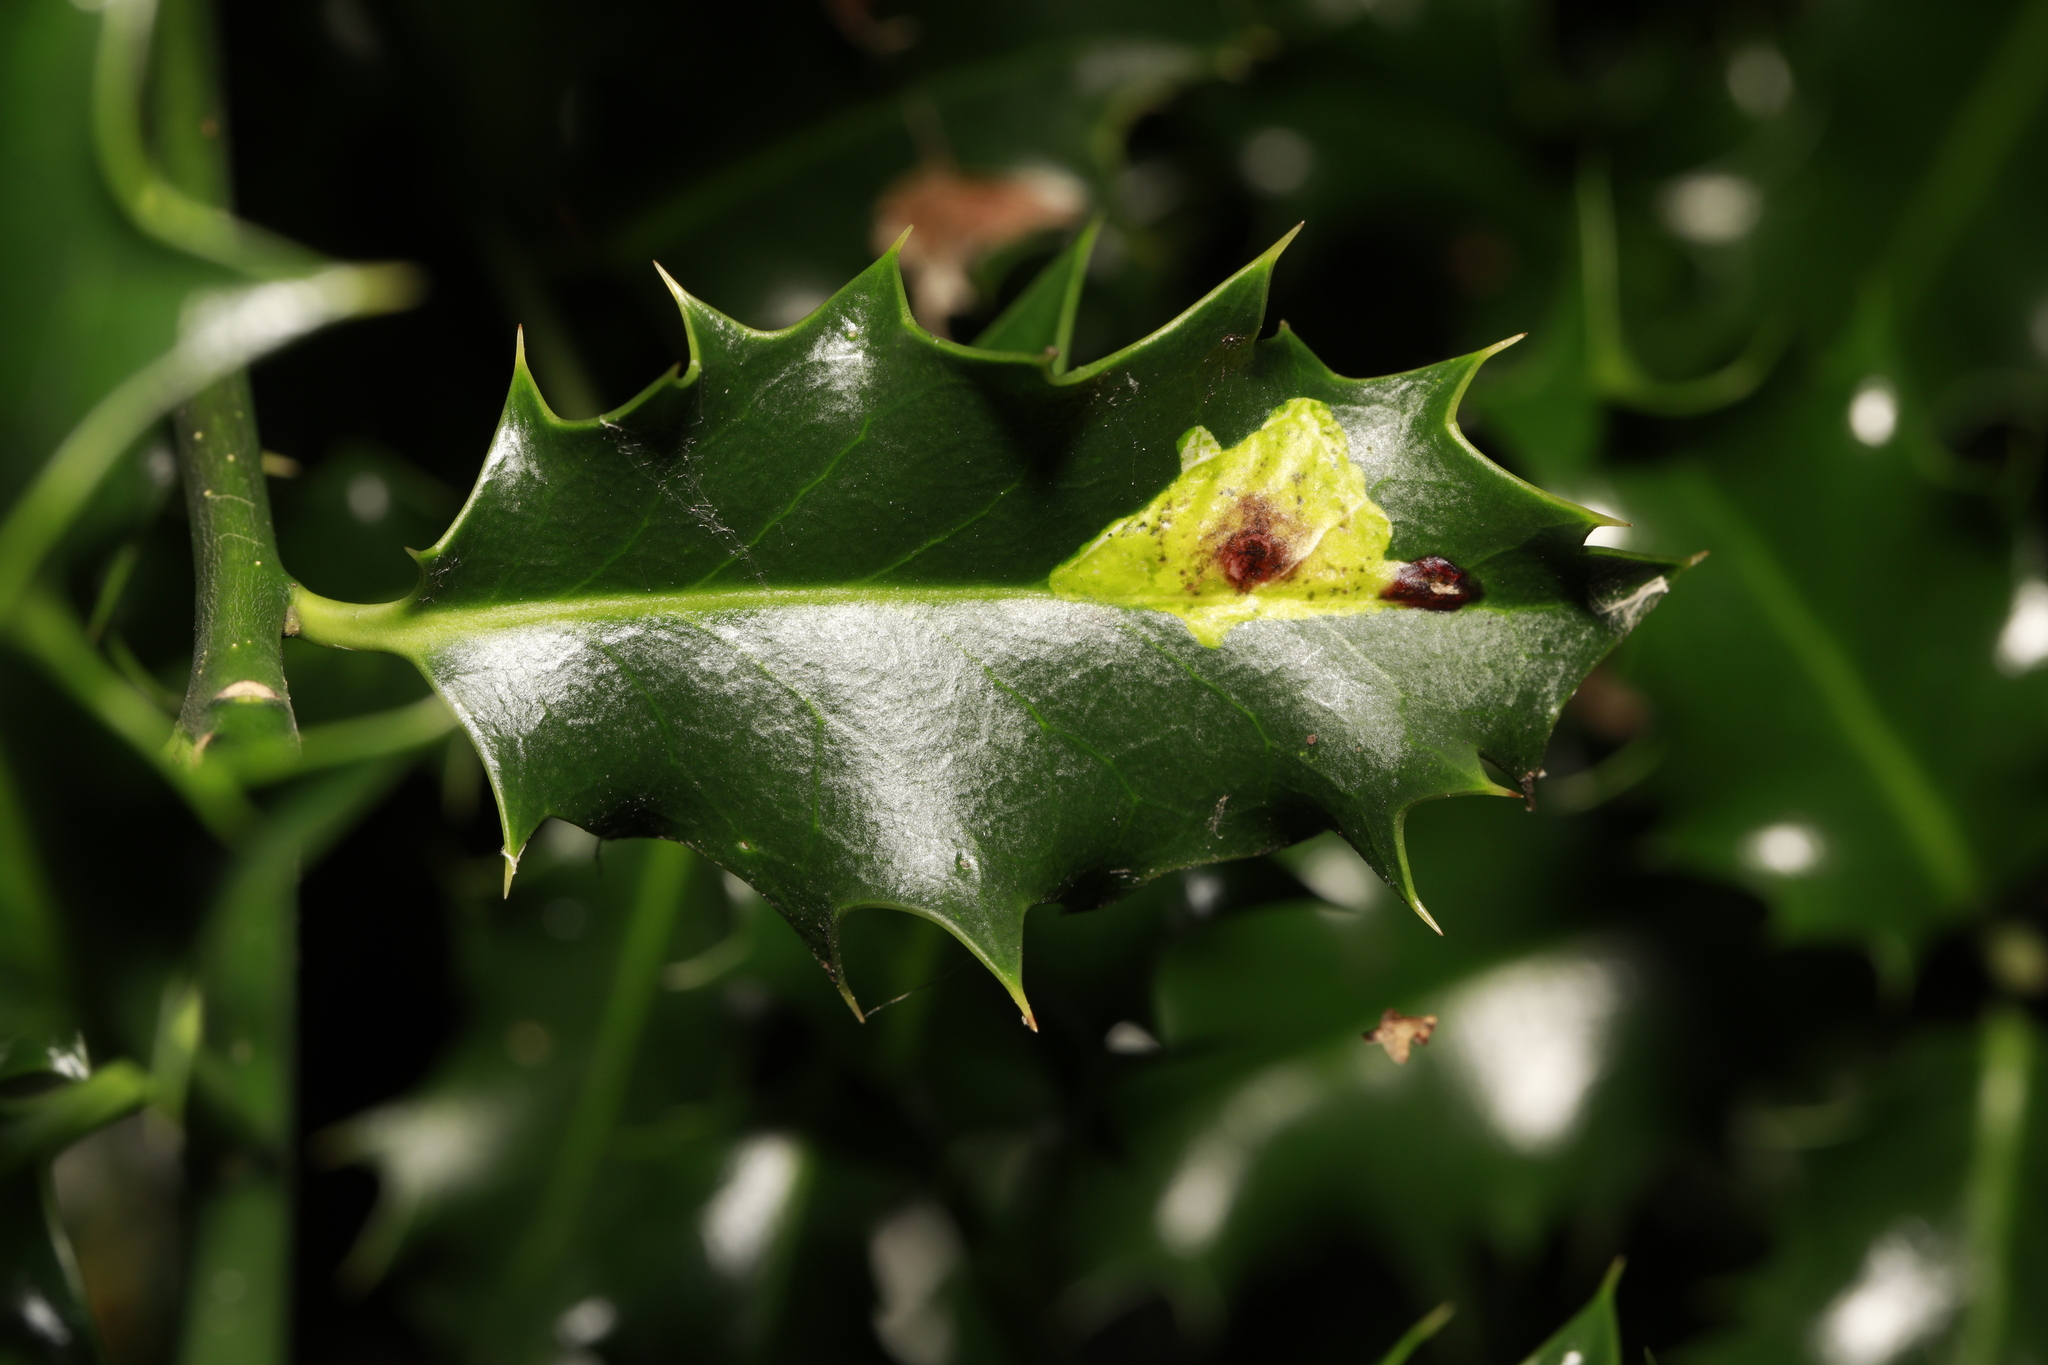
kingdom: Animalia
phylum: Arthropoda
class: Insecta
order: Diptera
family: Agromyzidae
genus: Phytomyza
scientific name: Phytomyza ilicis
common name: Holly leafminer
